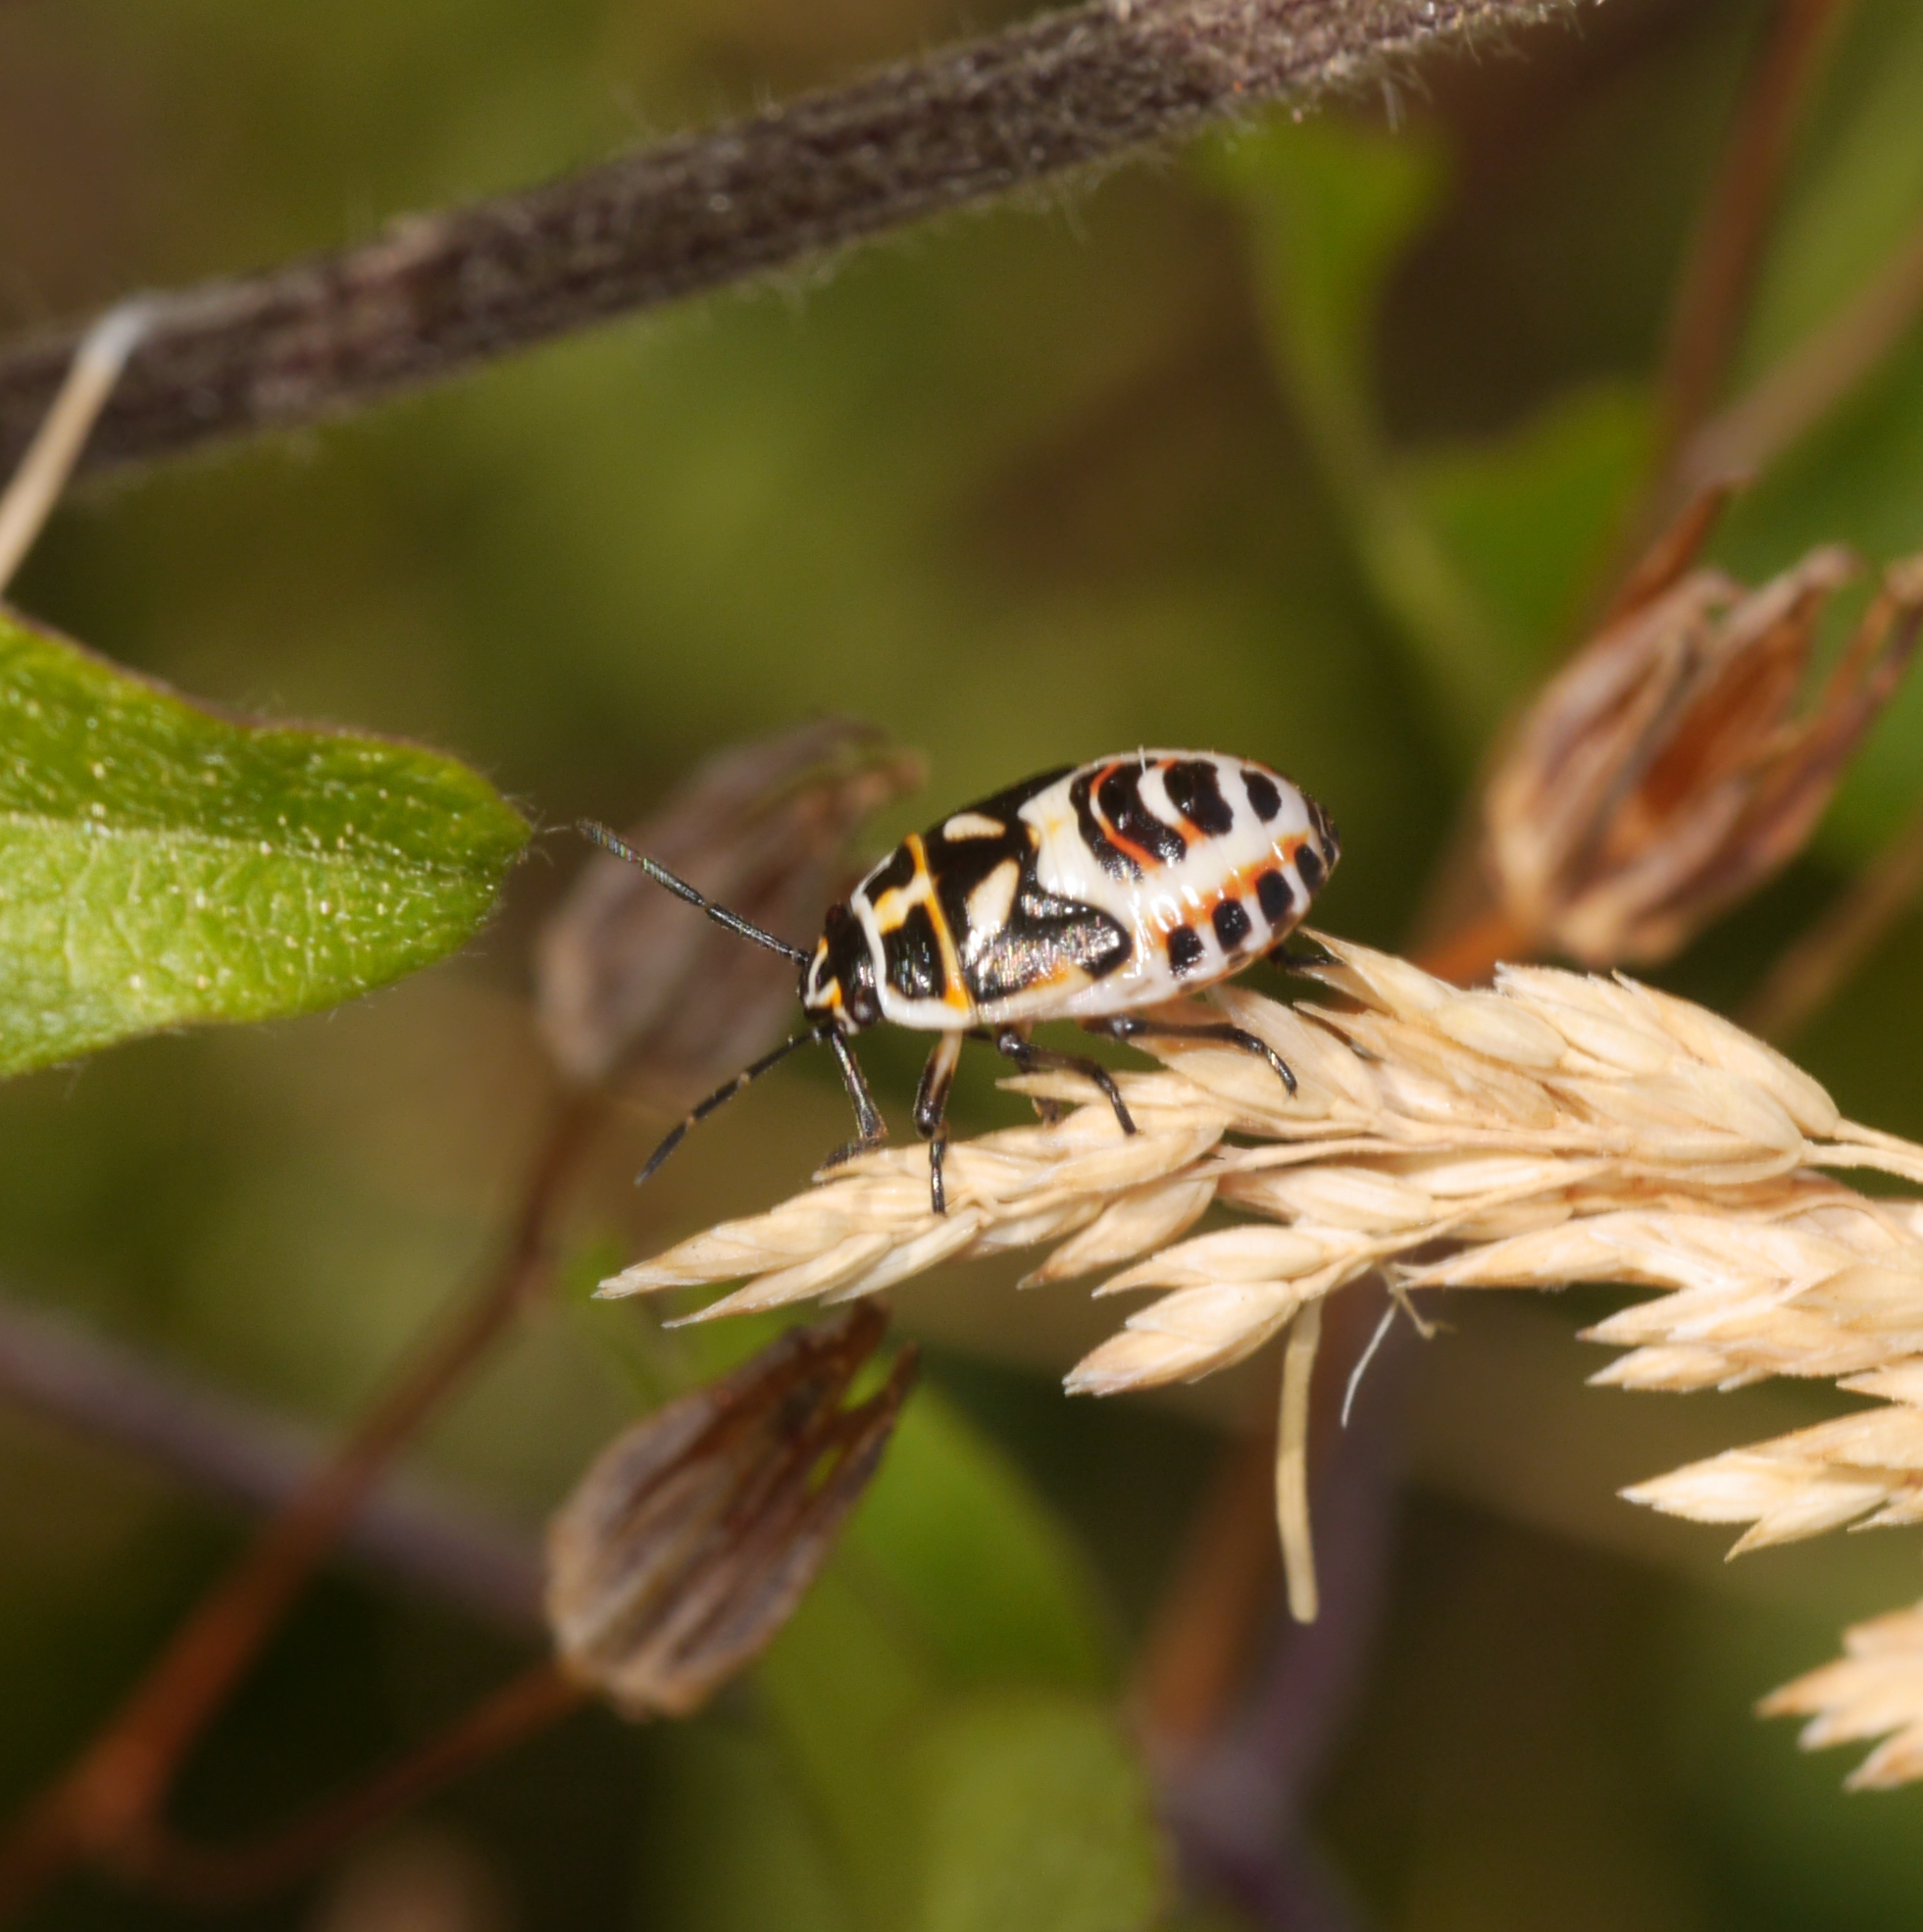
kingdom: Animalia
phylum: Arthropoda
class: Insecta
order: Hemiptera
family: Pentatomidae
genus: Eurydema
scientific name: Eurydema ornata
